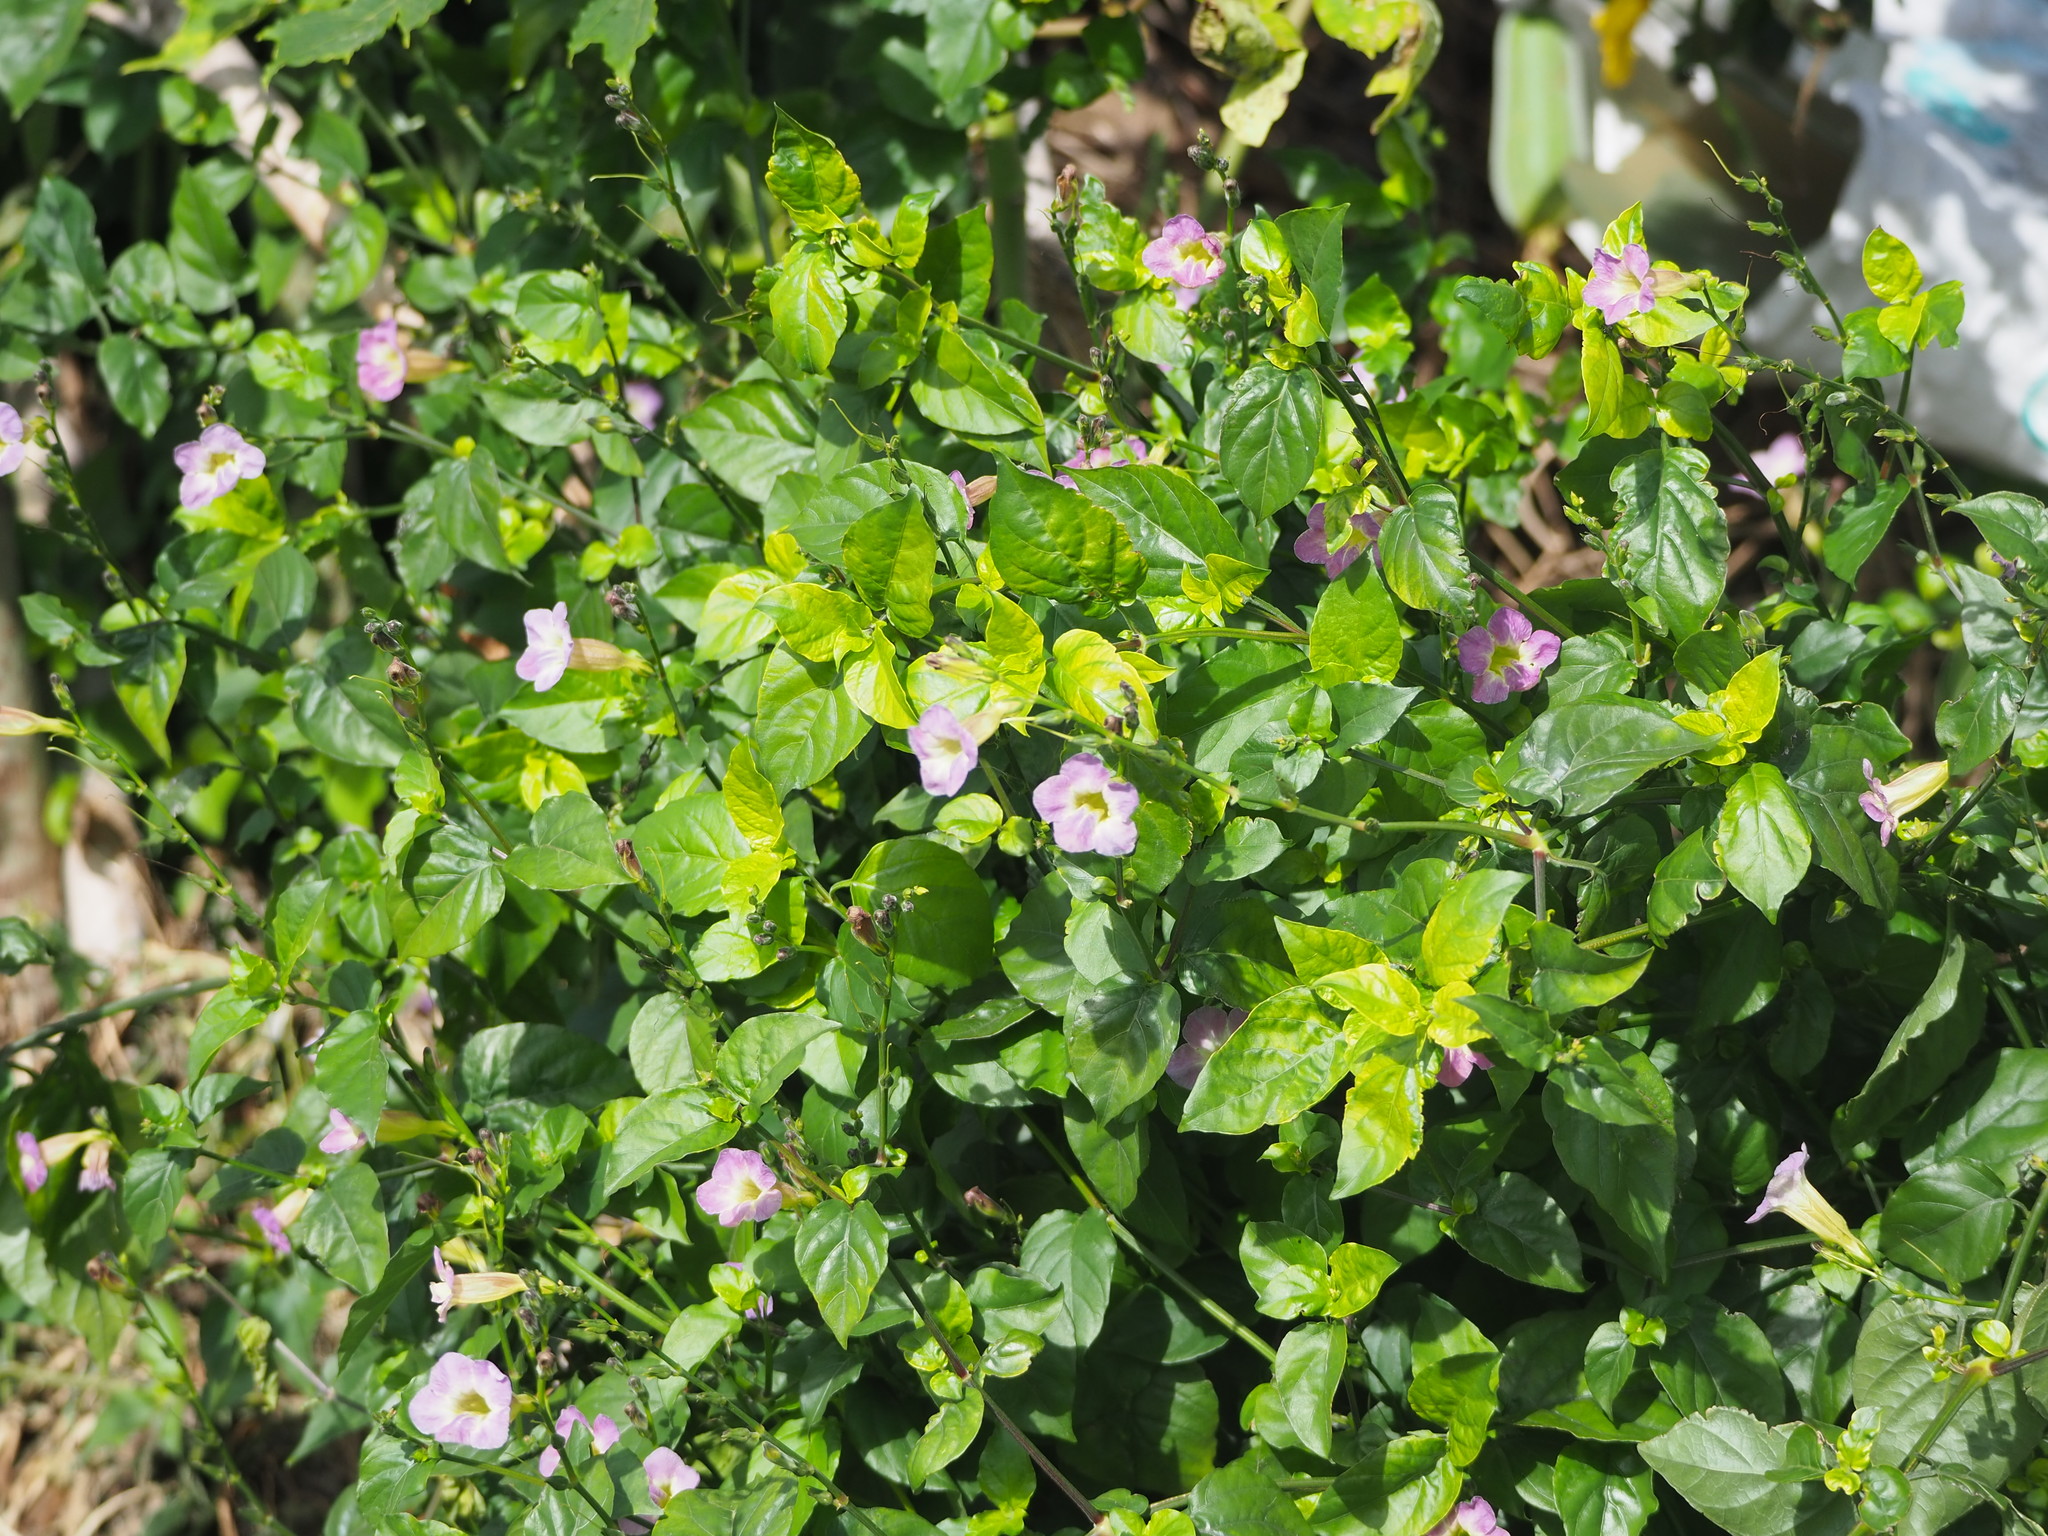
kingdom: Plantae
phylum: Tracheophyta
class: Magnoliopsida
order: Lamiales
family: Acanthaceae
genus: Asystasia
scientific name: Asystasia gangetica
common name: Chinese violet
